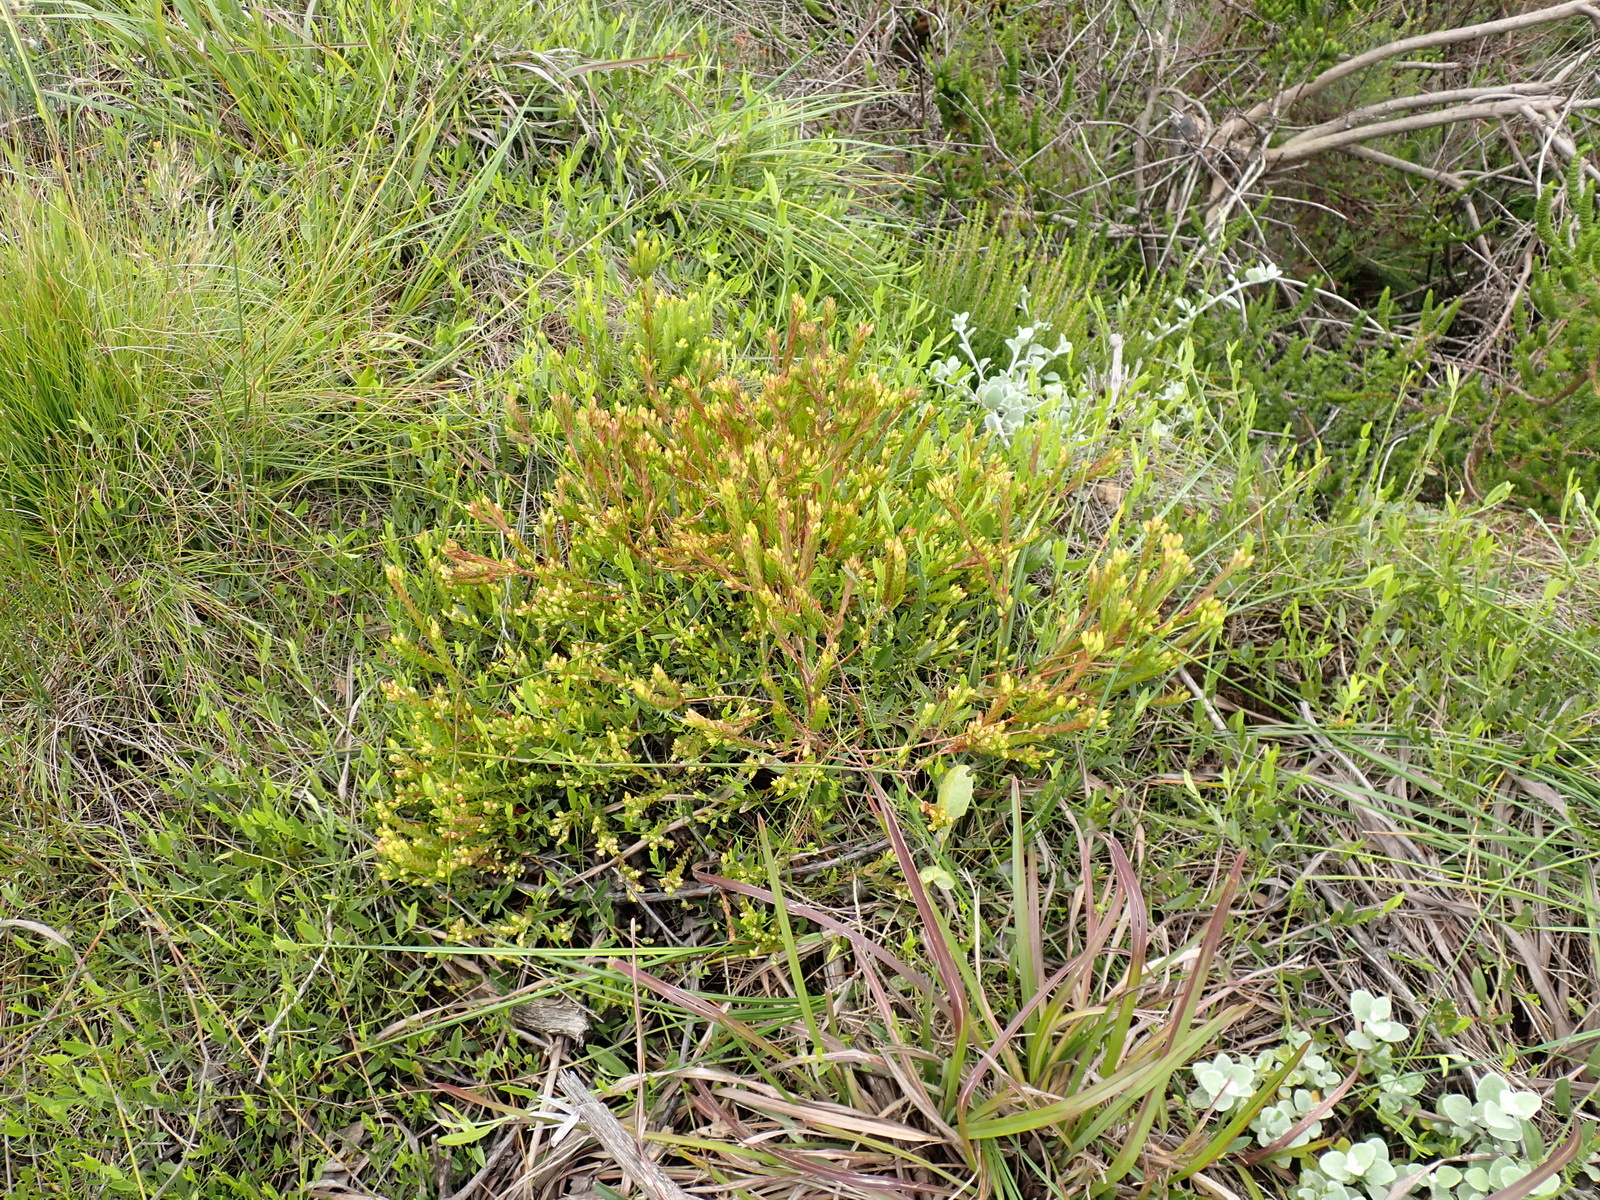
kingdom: Plantae
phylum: Tracheophyta
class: Magnoliopsida
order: Malvales
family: Thymelaeaceae
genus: Gnidia
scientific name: Gnidia juniperifolia
